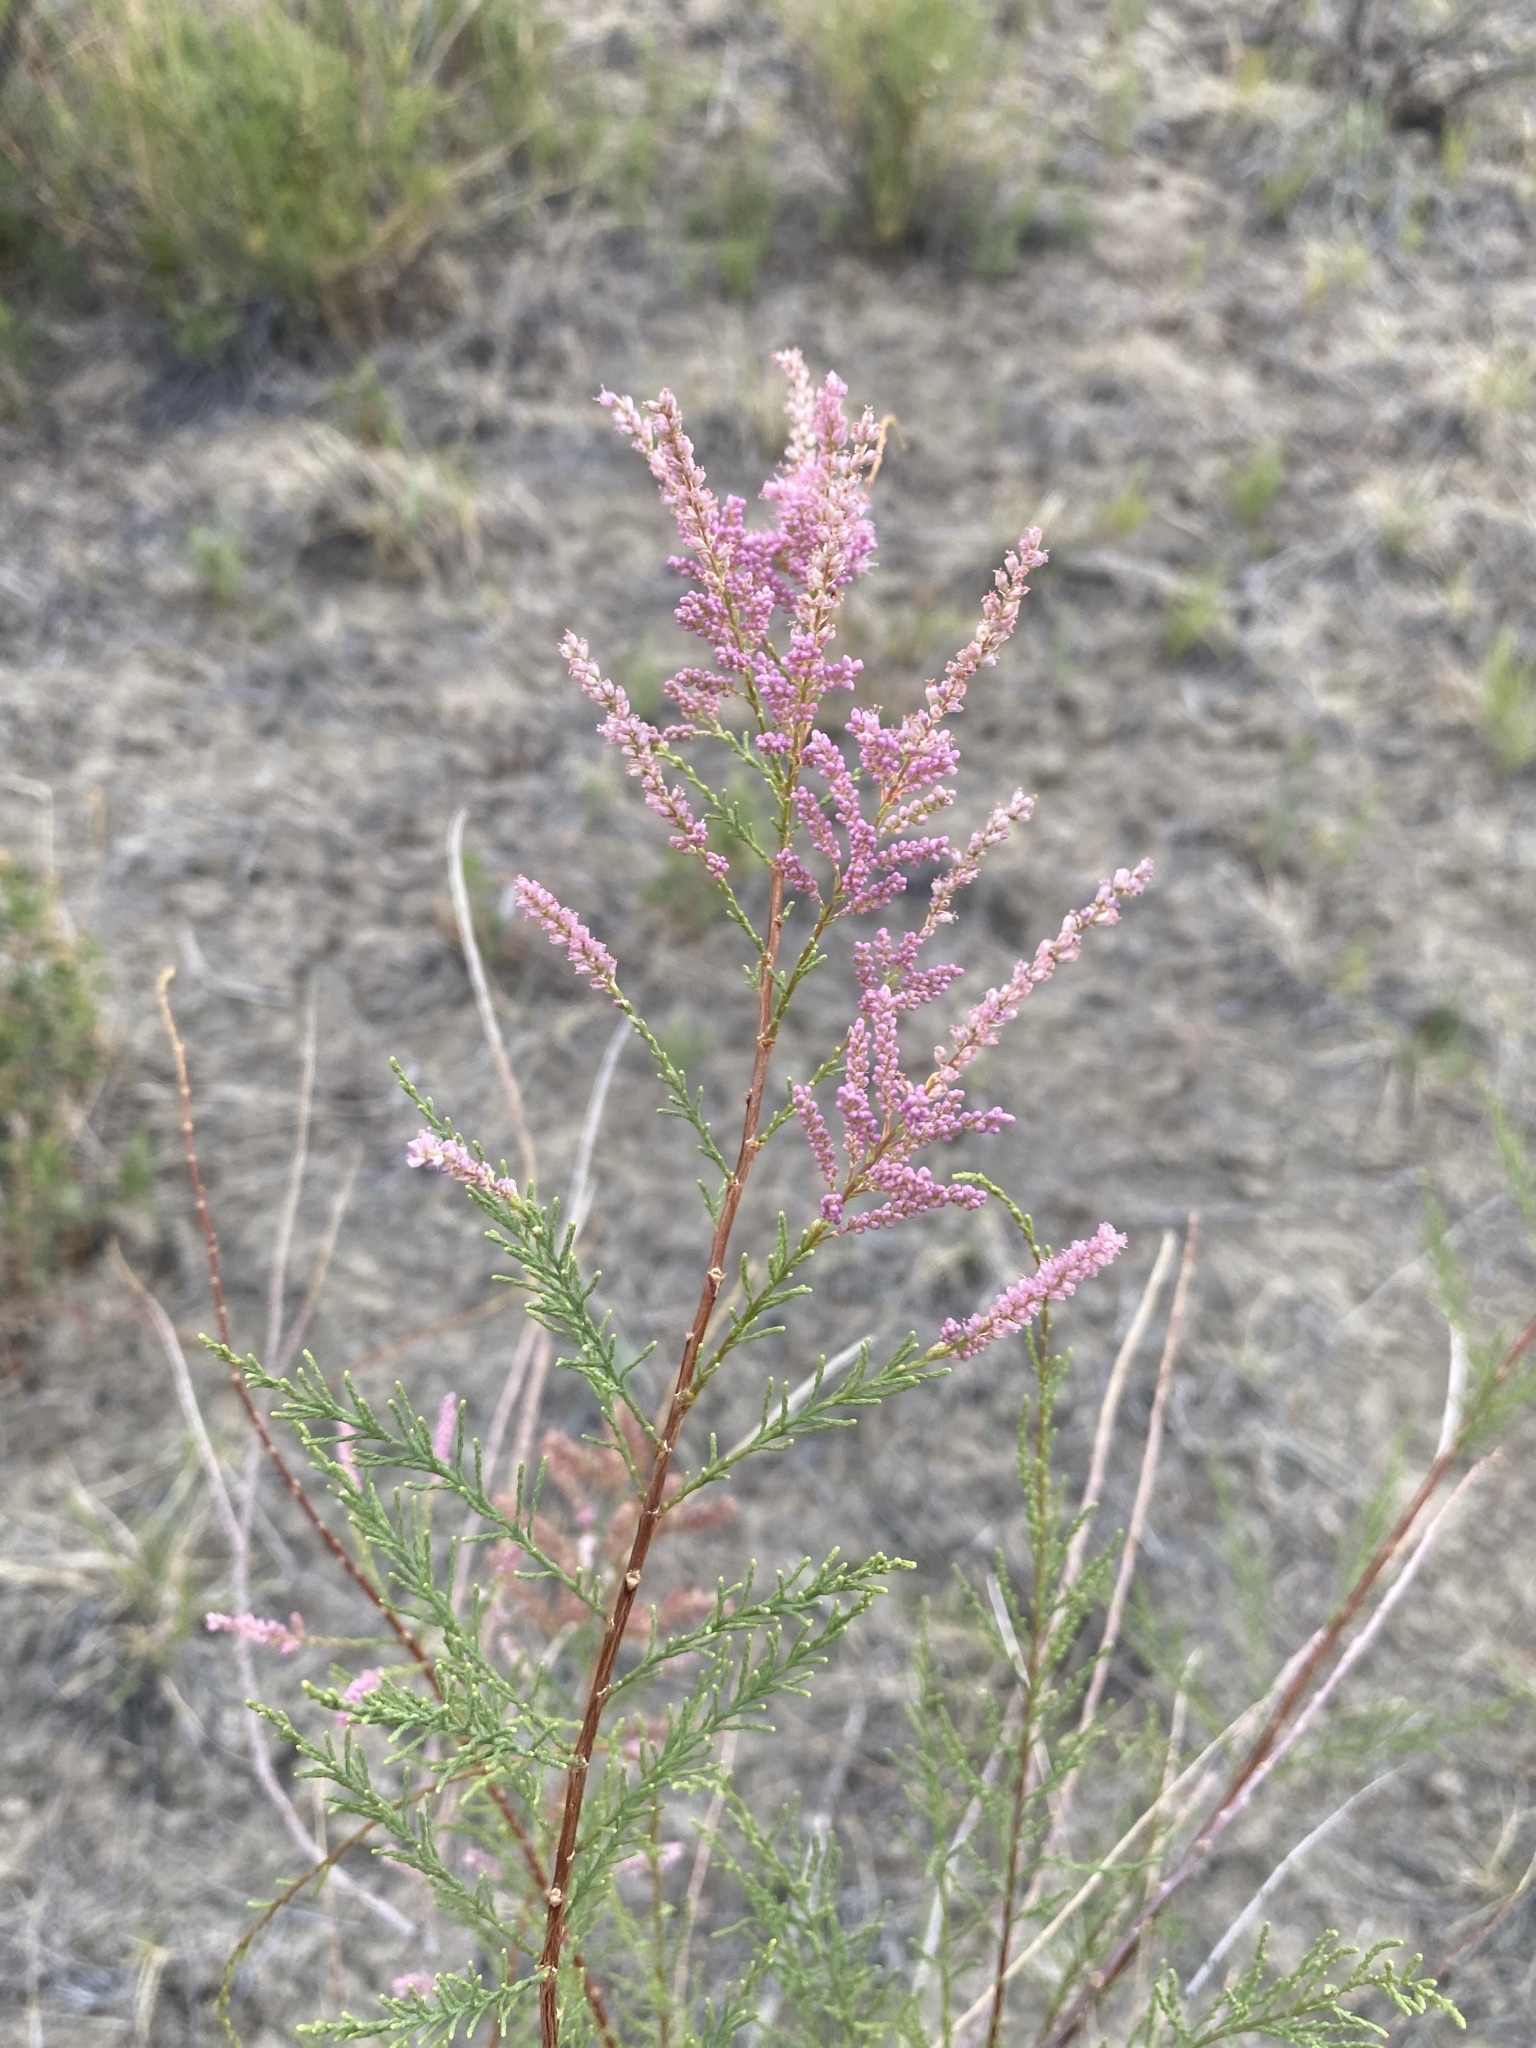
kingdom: Plantae
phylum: Tracheophyta
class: Magnoliopsida
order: Caryophyllales
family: Tamaricaceae
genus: Tamarix
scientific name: Tamarix
